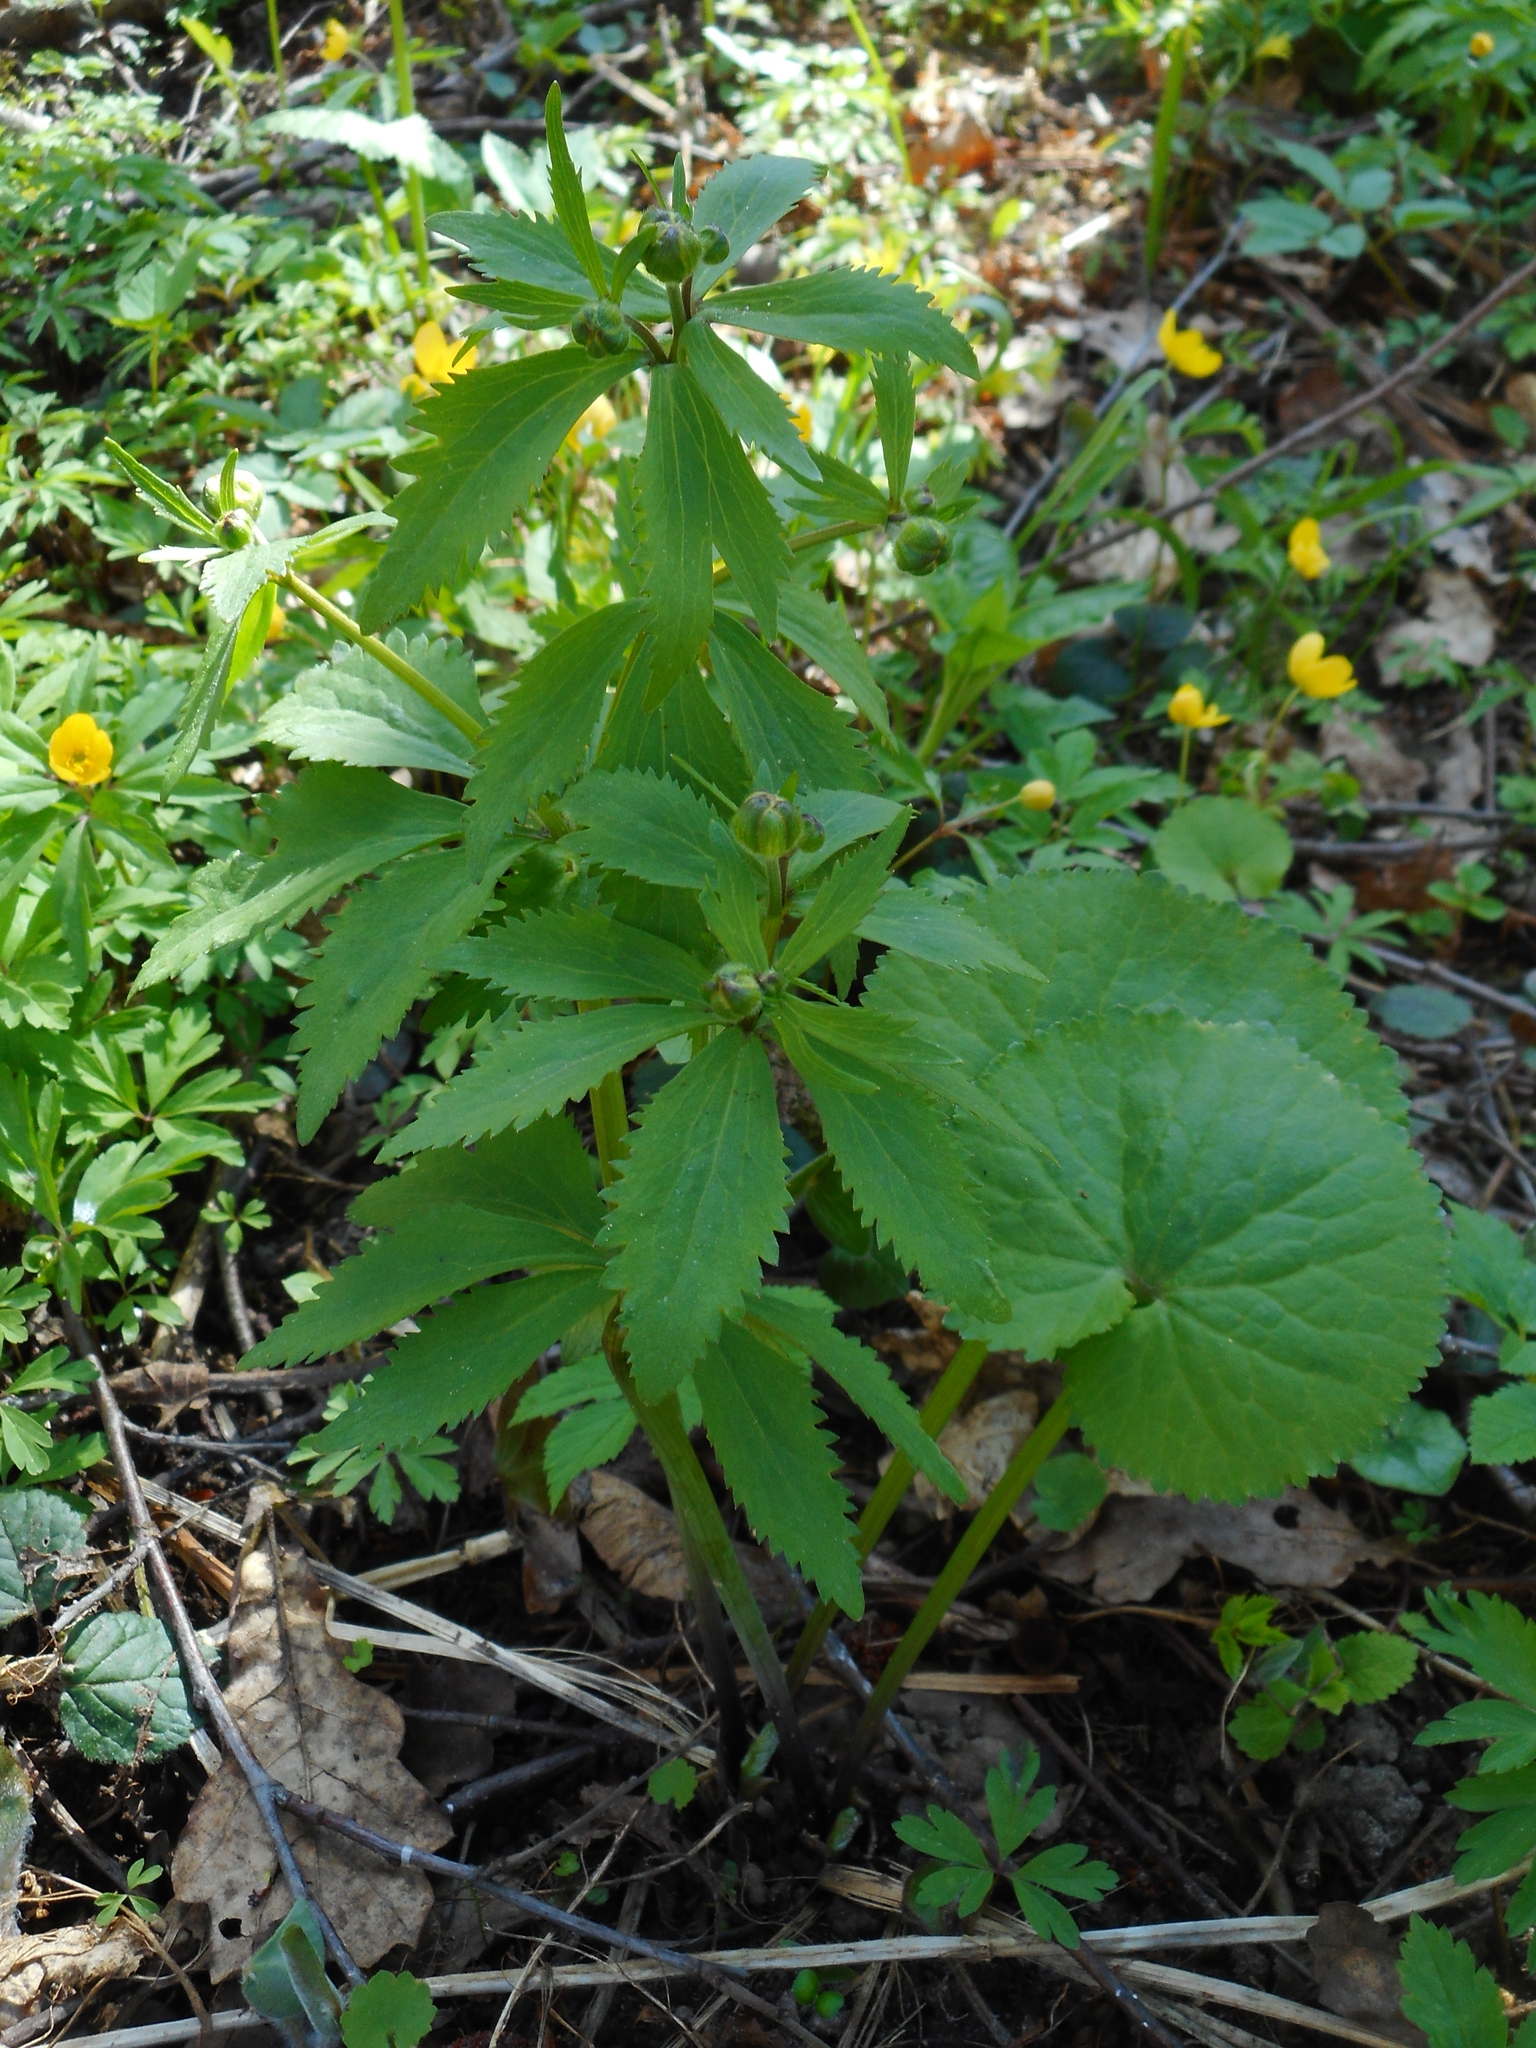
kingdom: Plantae
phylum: Tracheophyta
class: Magnoliopsida
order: Ranunculales
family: Ranunculaceae
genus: Ranunculus
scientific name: Ranunculus cassubicus
